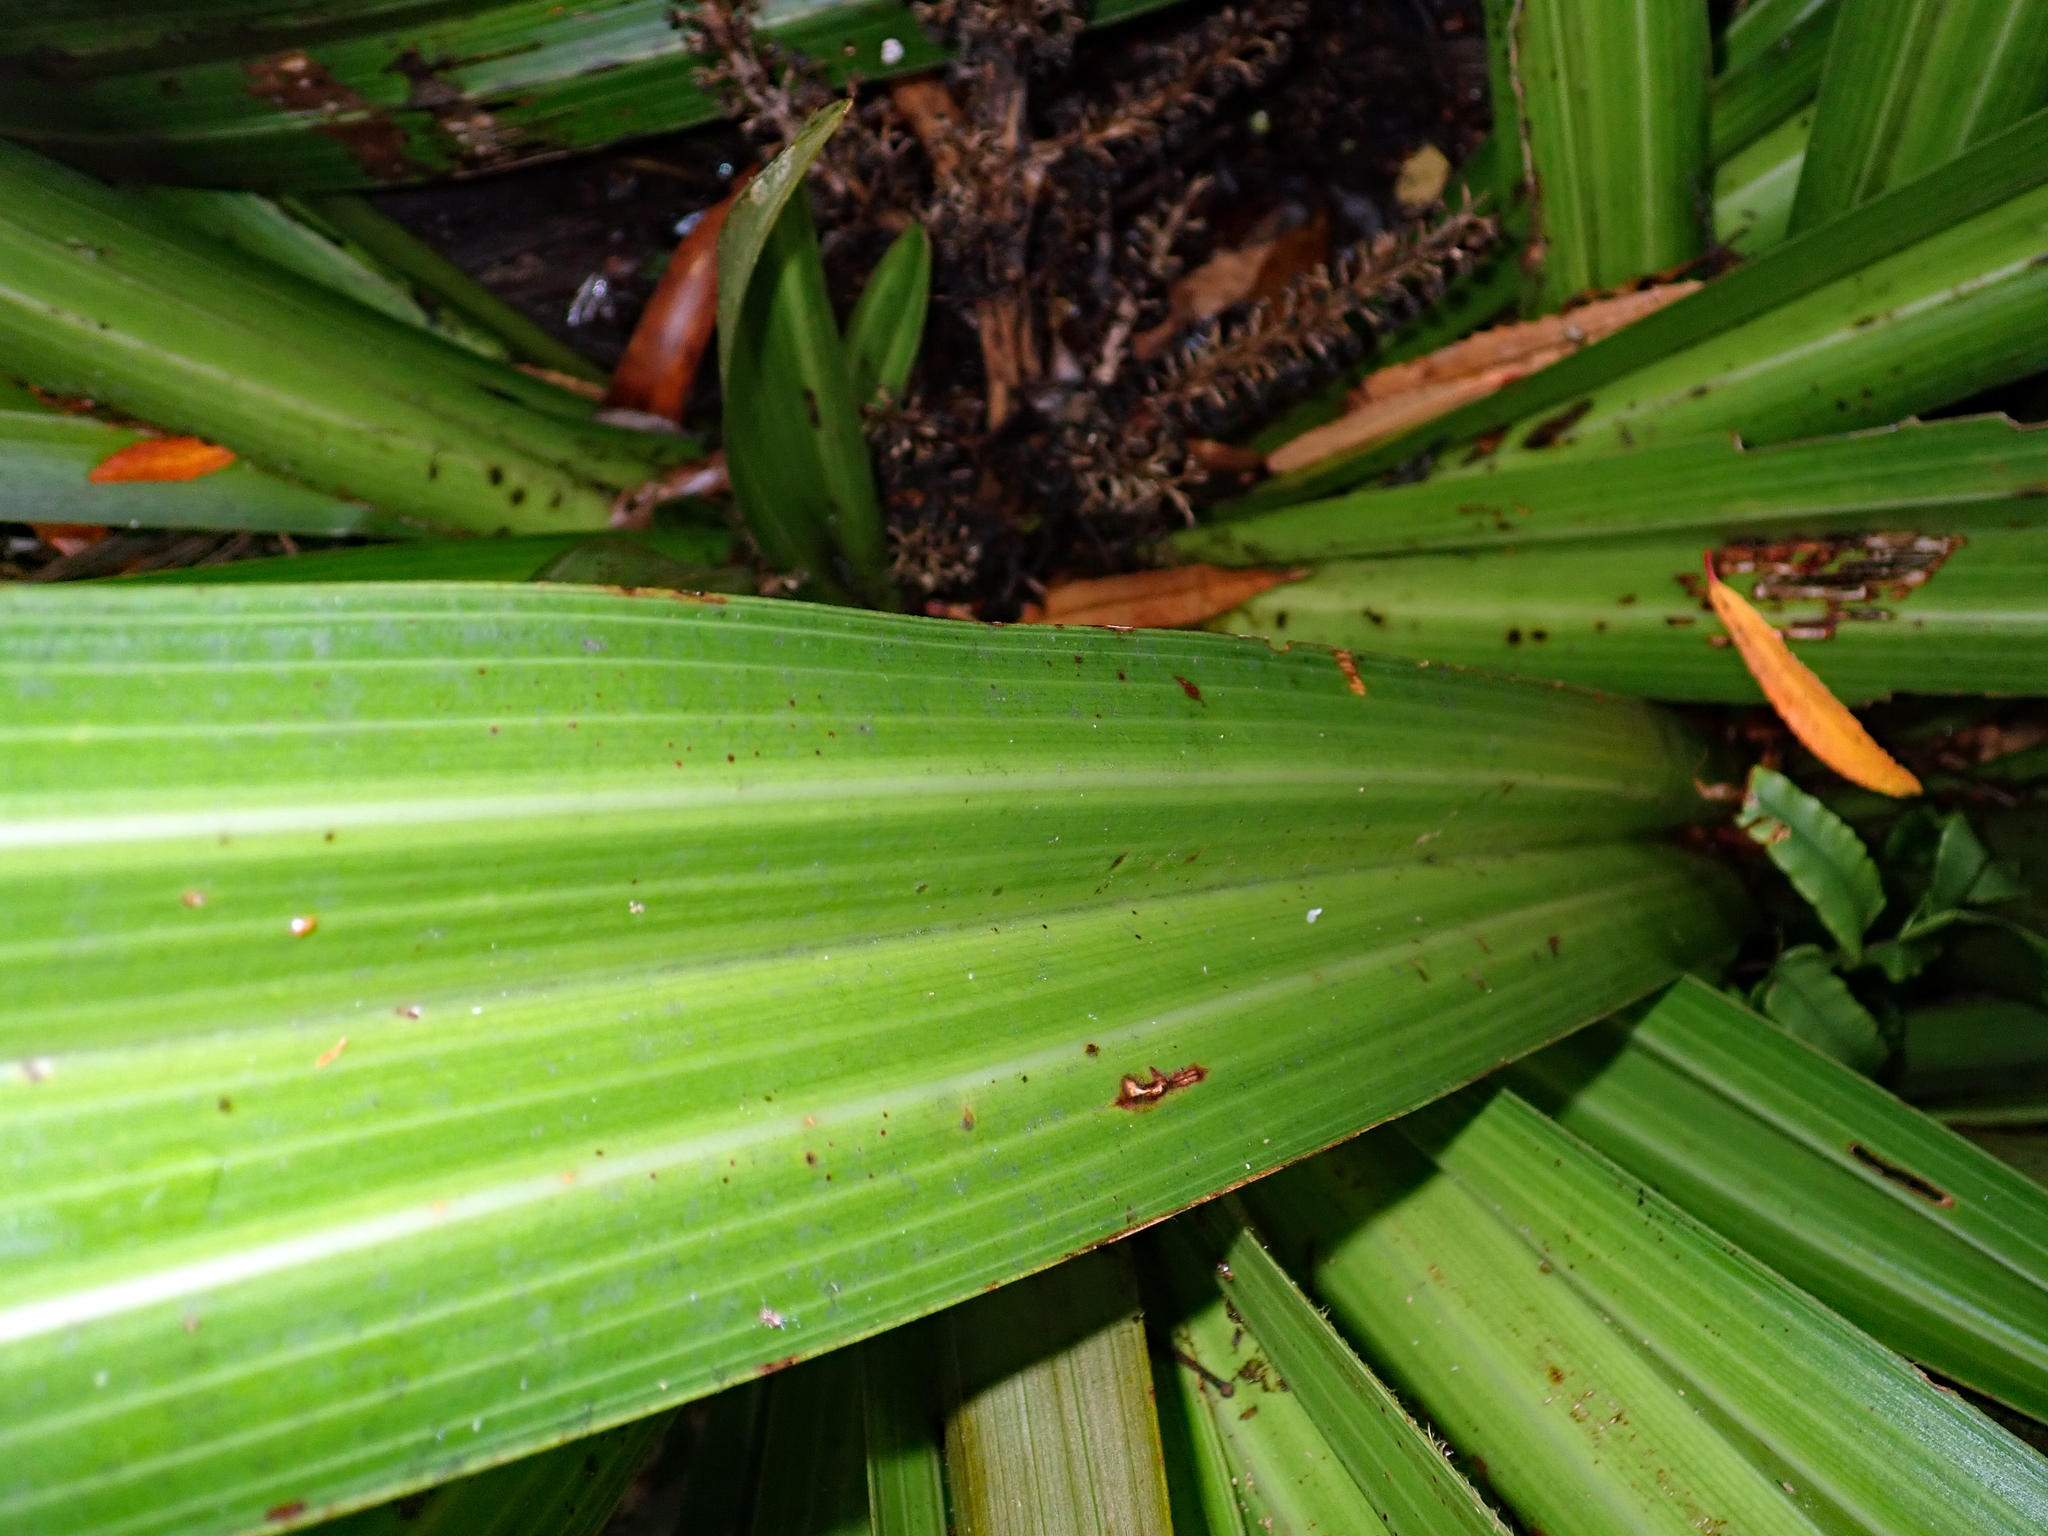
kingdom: Plantae
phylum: Tracheophyta
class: Liliopsida
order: Asparagales
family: Asteliaceae
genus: Astelia
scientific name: Astelia grandis
